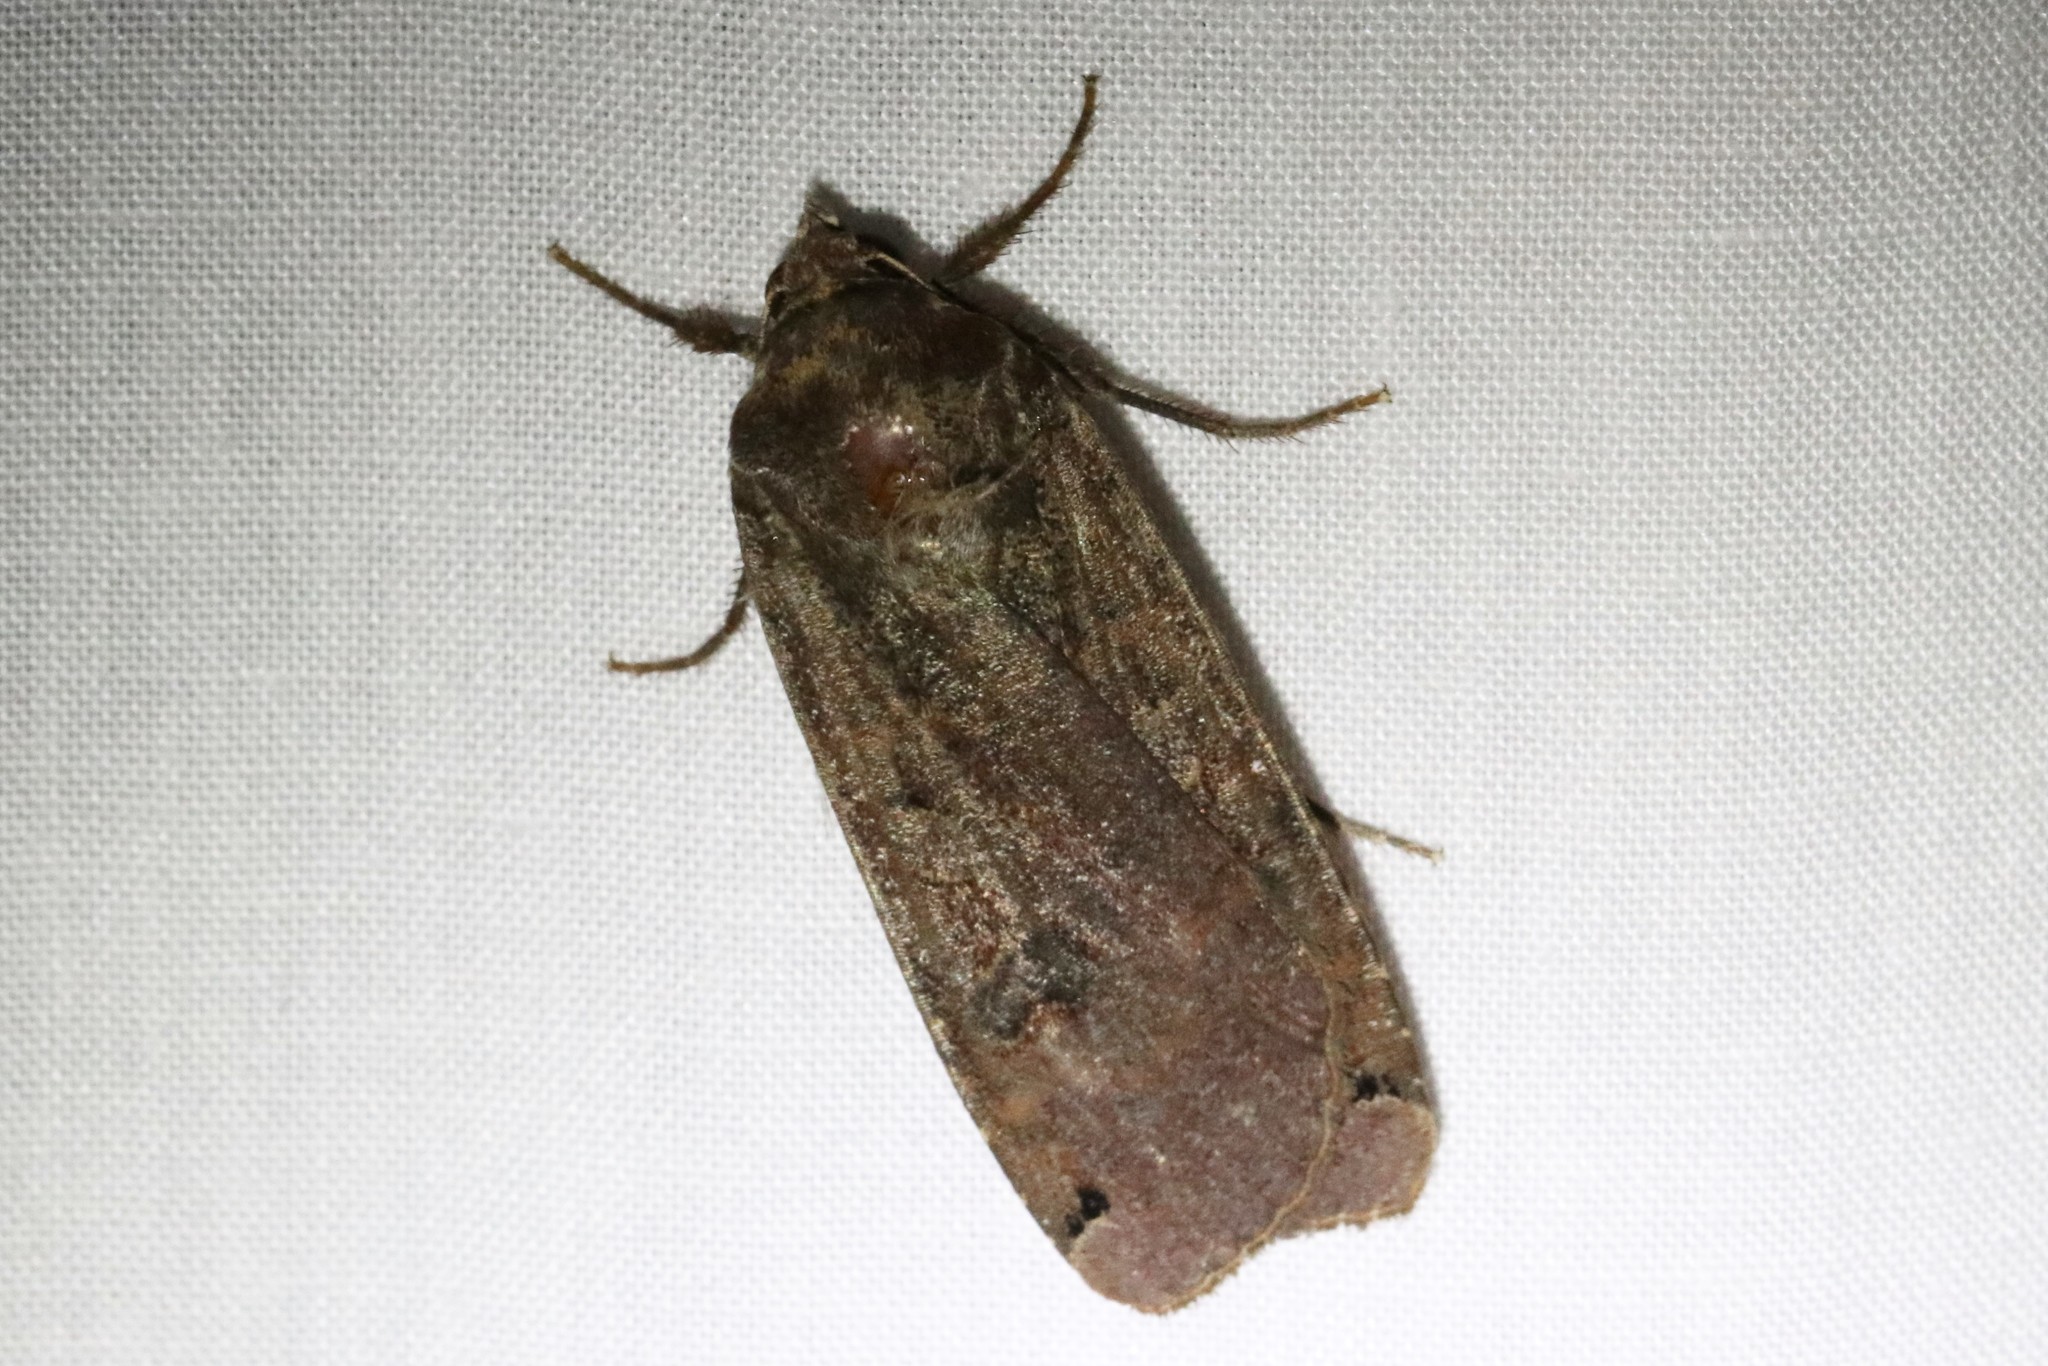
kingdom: Animalia
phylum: Arthropoda
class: Insecta
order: Lepidoptera
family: Noctuidae
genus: Noctua
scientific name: Noctua pronuba
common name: Large yellow underwing
